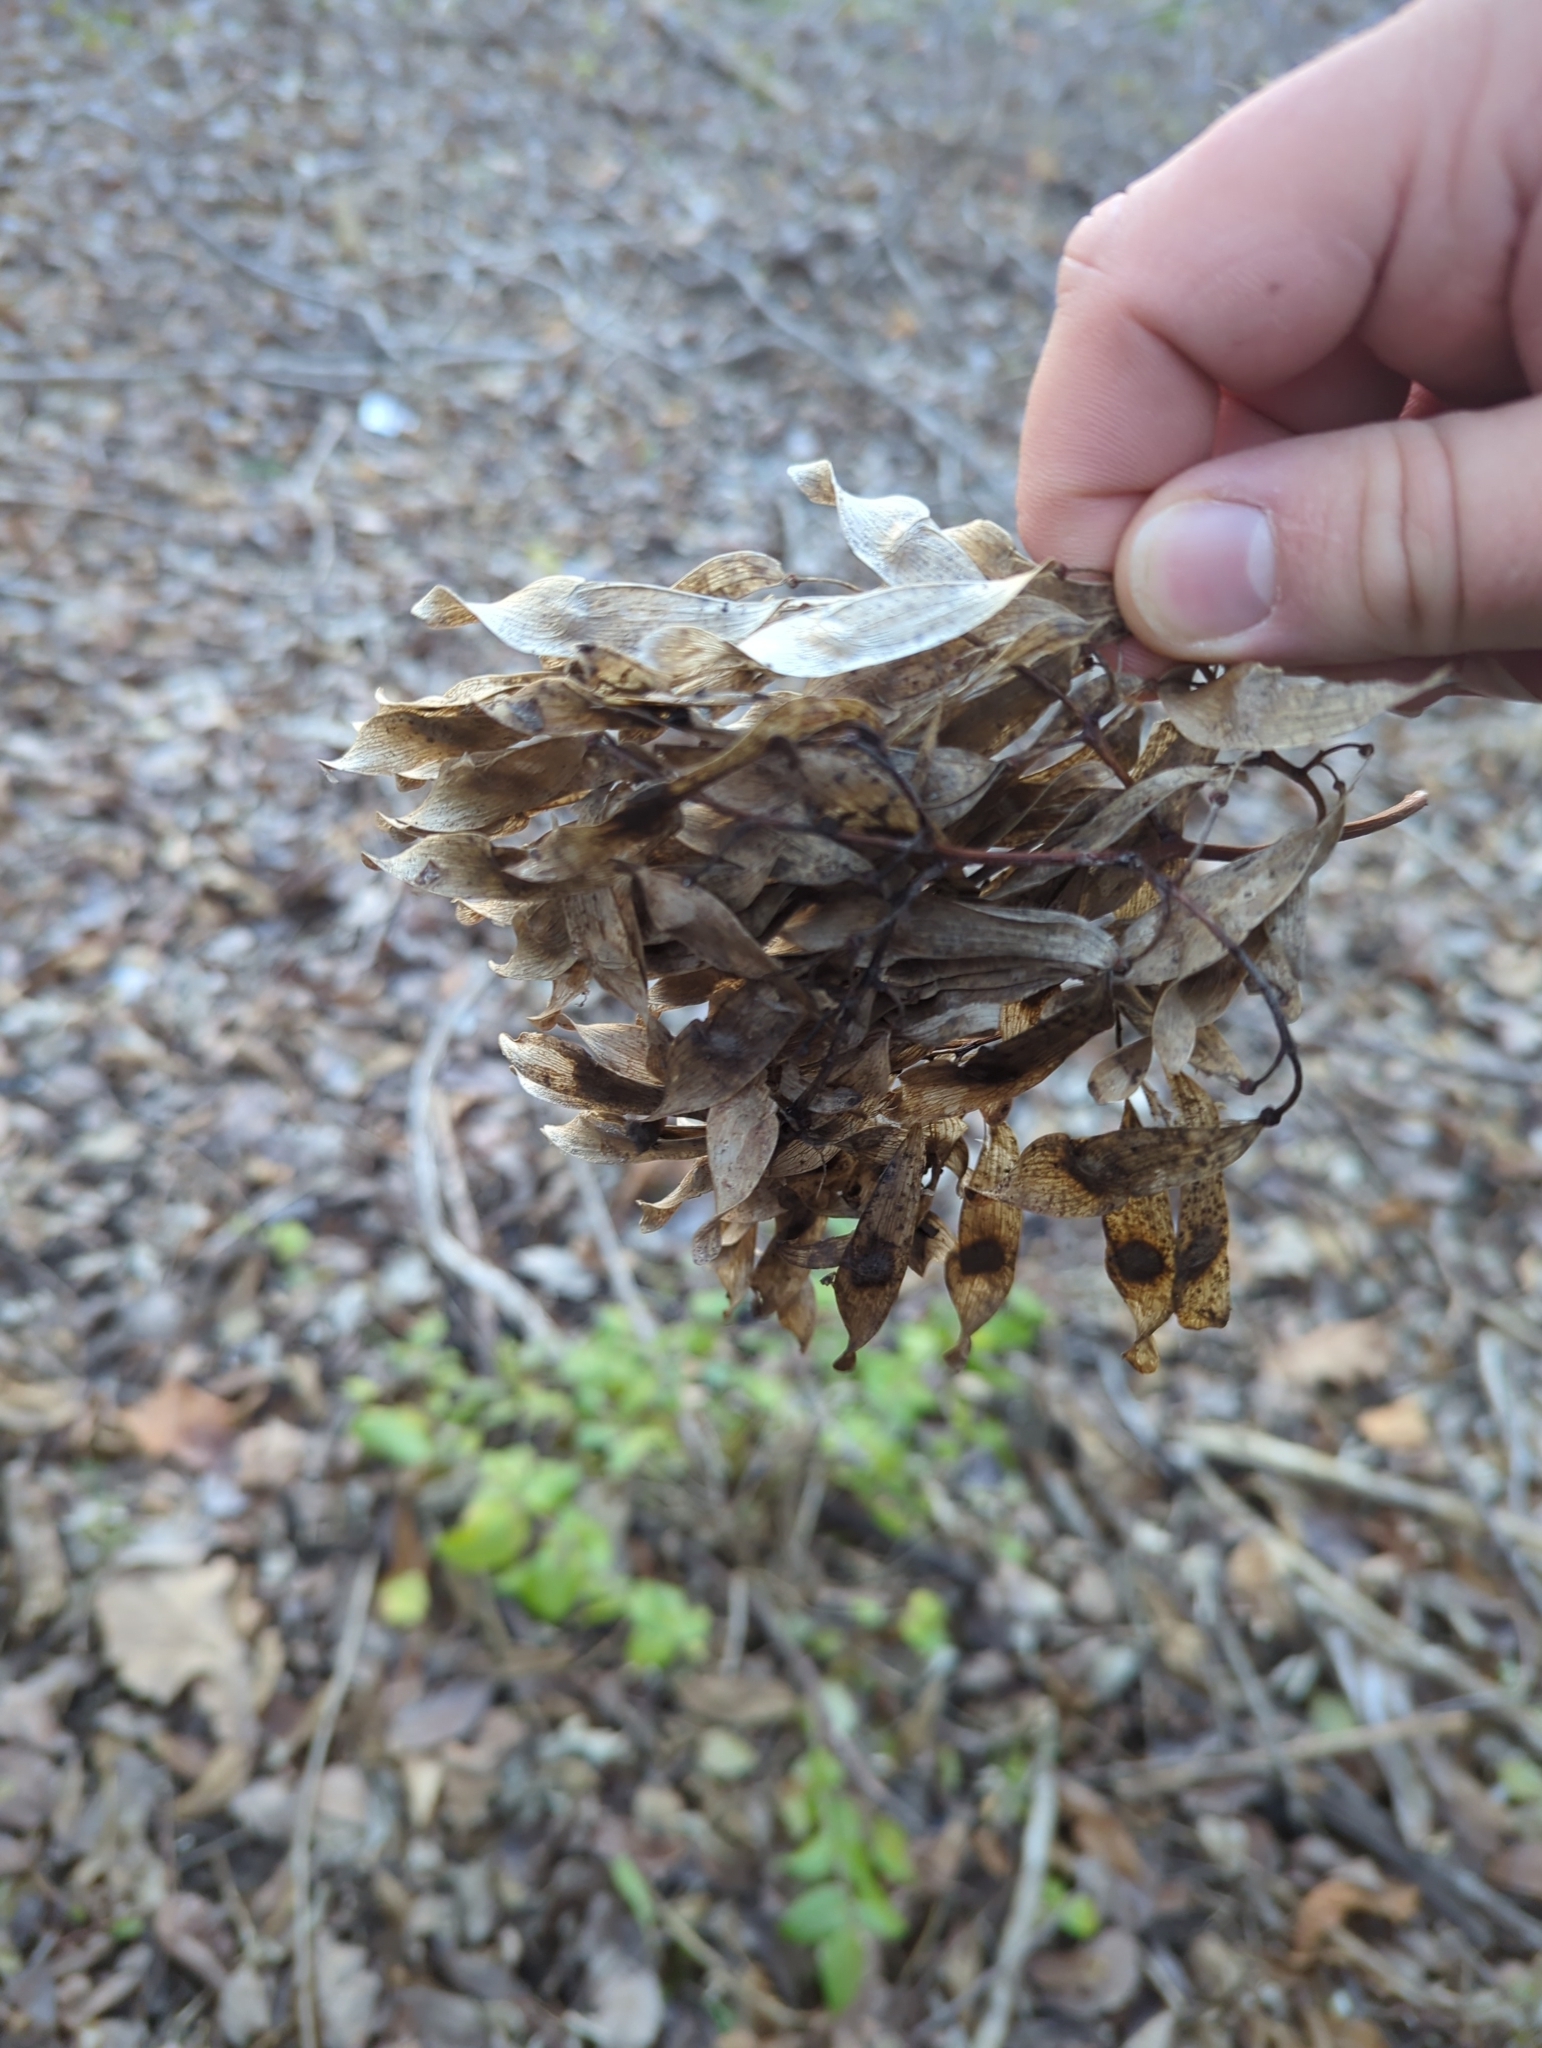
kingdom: Plantae
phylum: Tracheophyta
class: Magnoliopsida
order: Sapindales
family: Simaroubaceae
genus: Ailanthus
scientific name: Ailanthus altissima
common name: Tree-of-heaven
